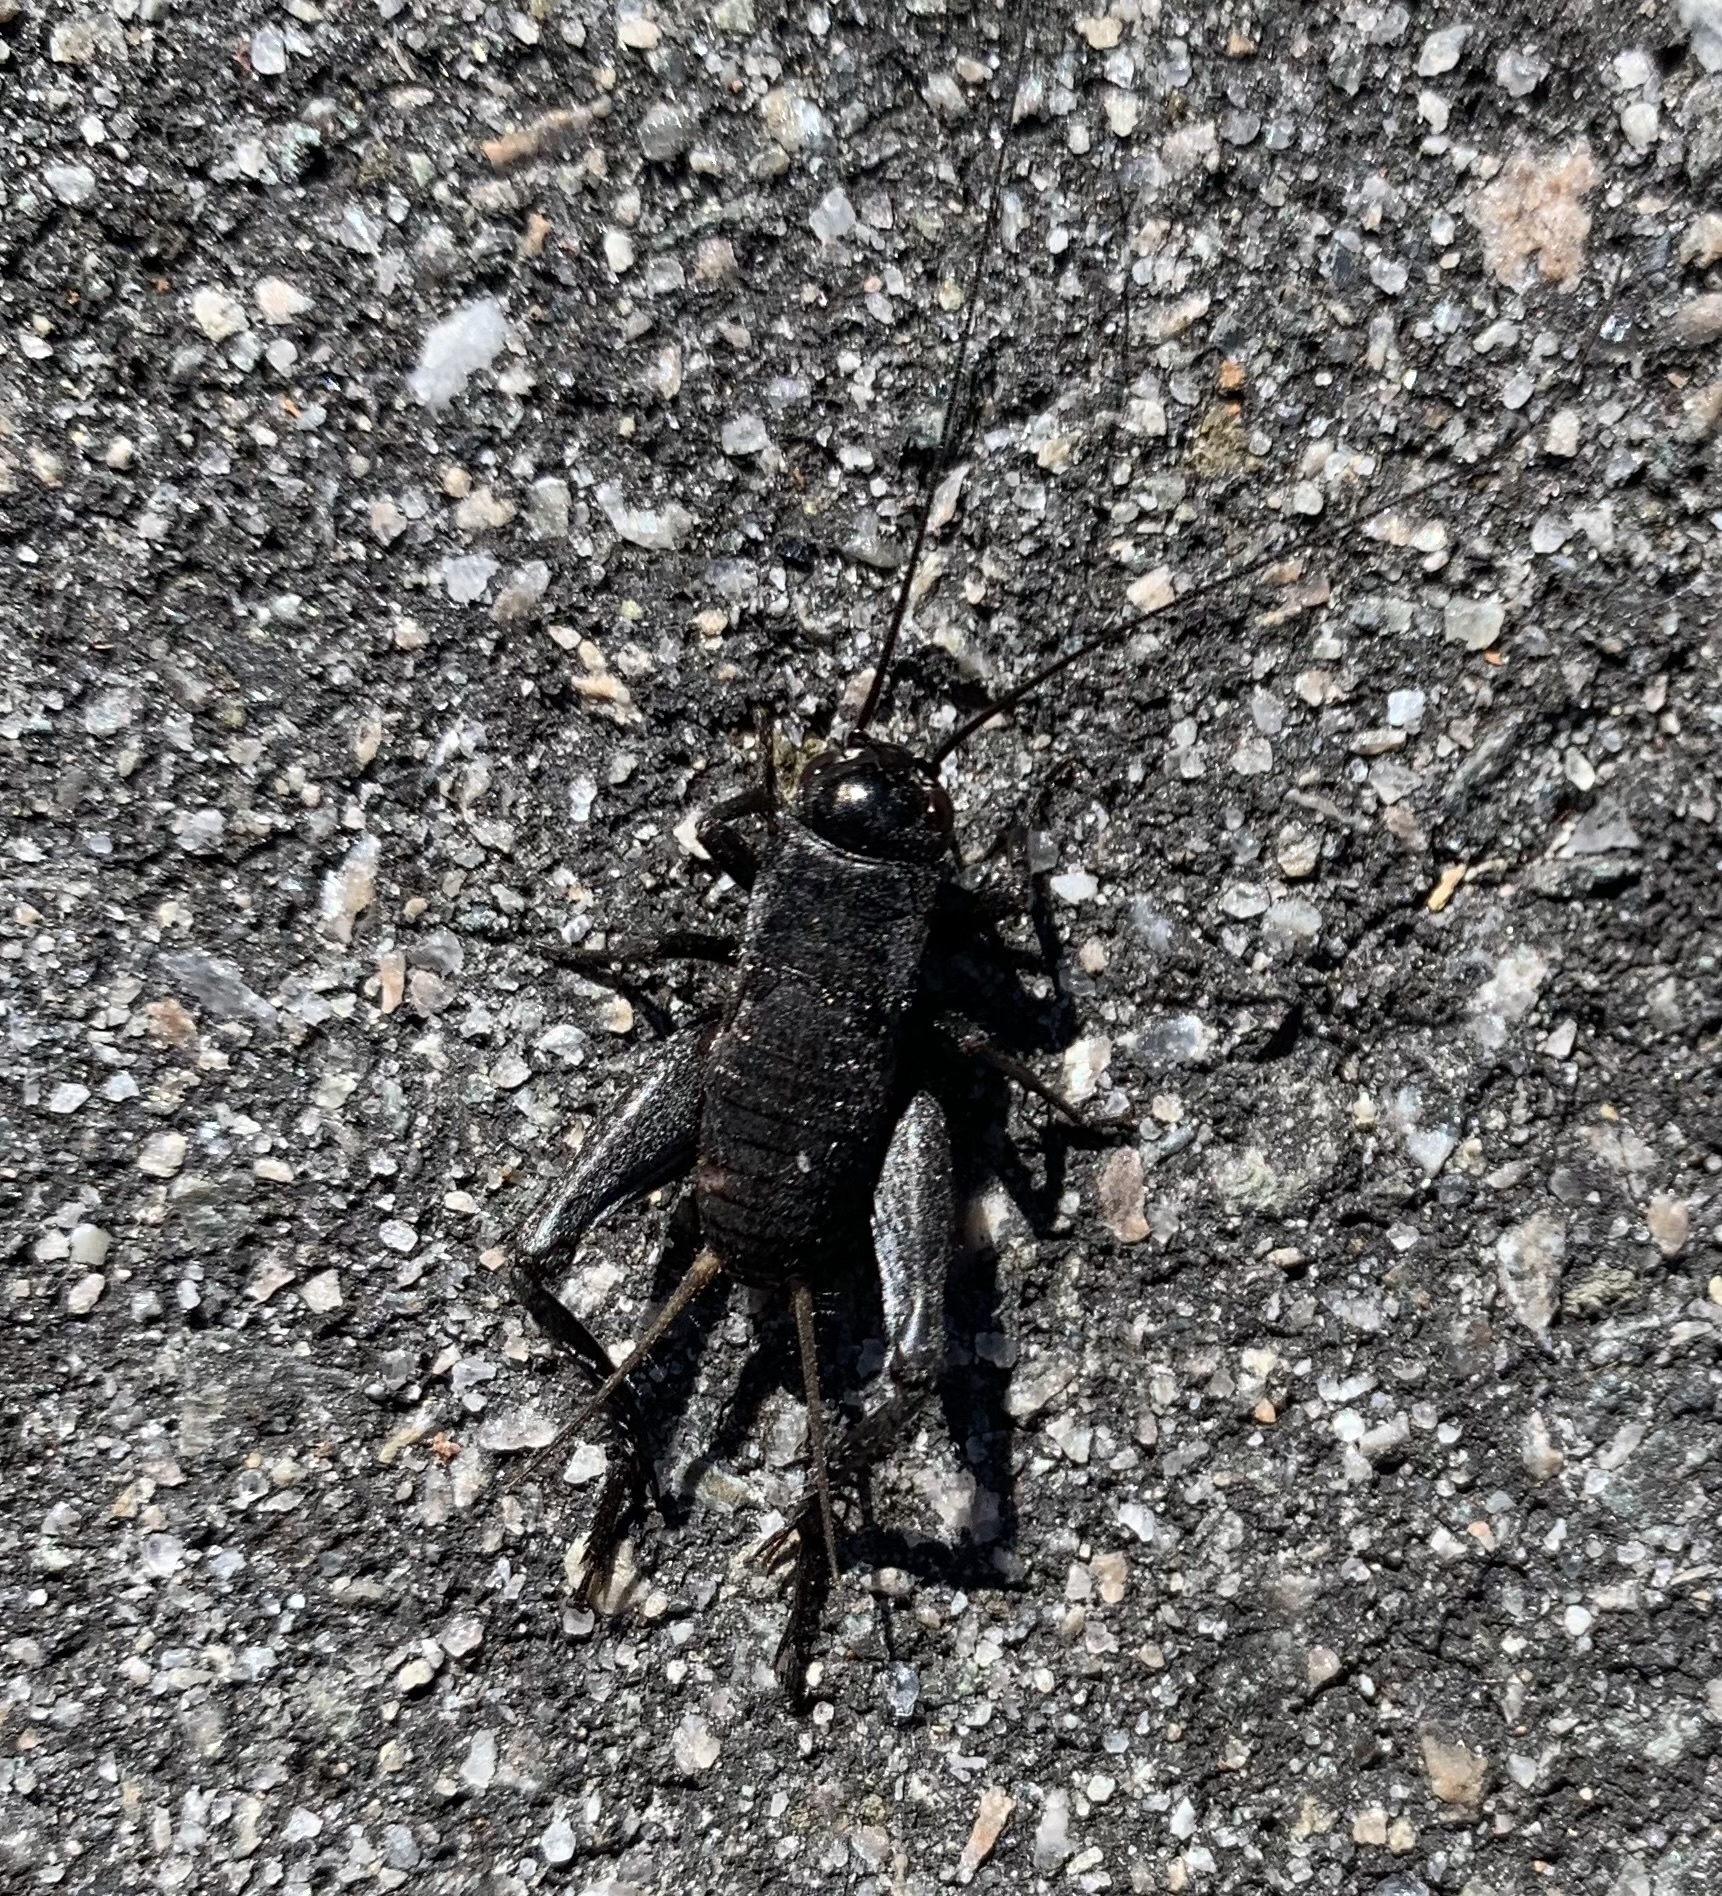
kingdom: Animalia
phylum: Arthropoda
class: Insecta
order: Orthoptera
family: Gryllidae
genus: Gryllus
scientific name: Gryllus
